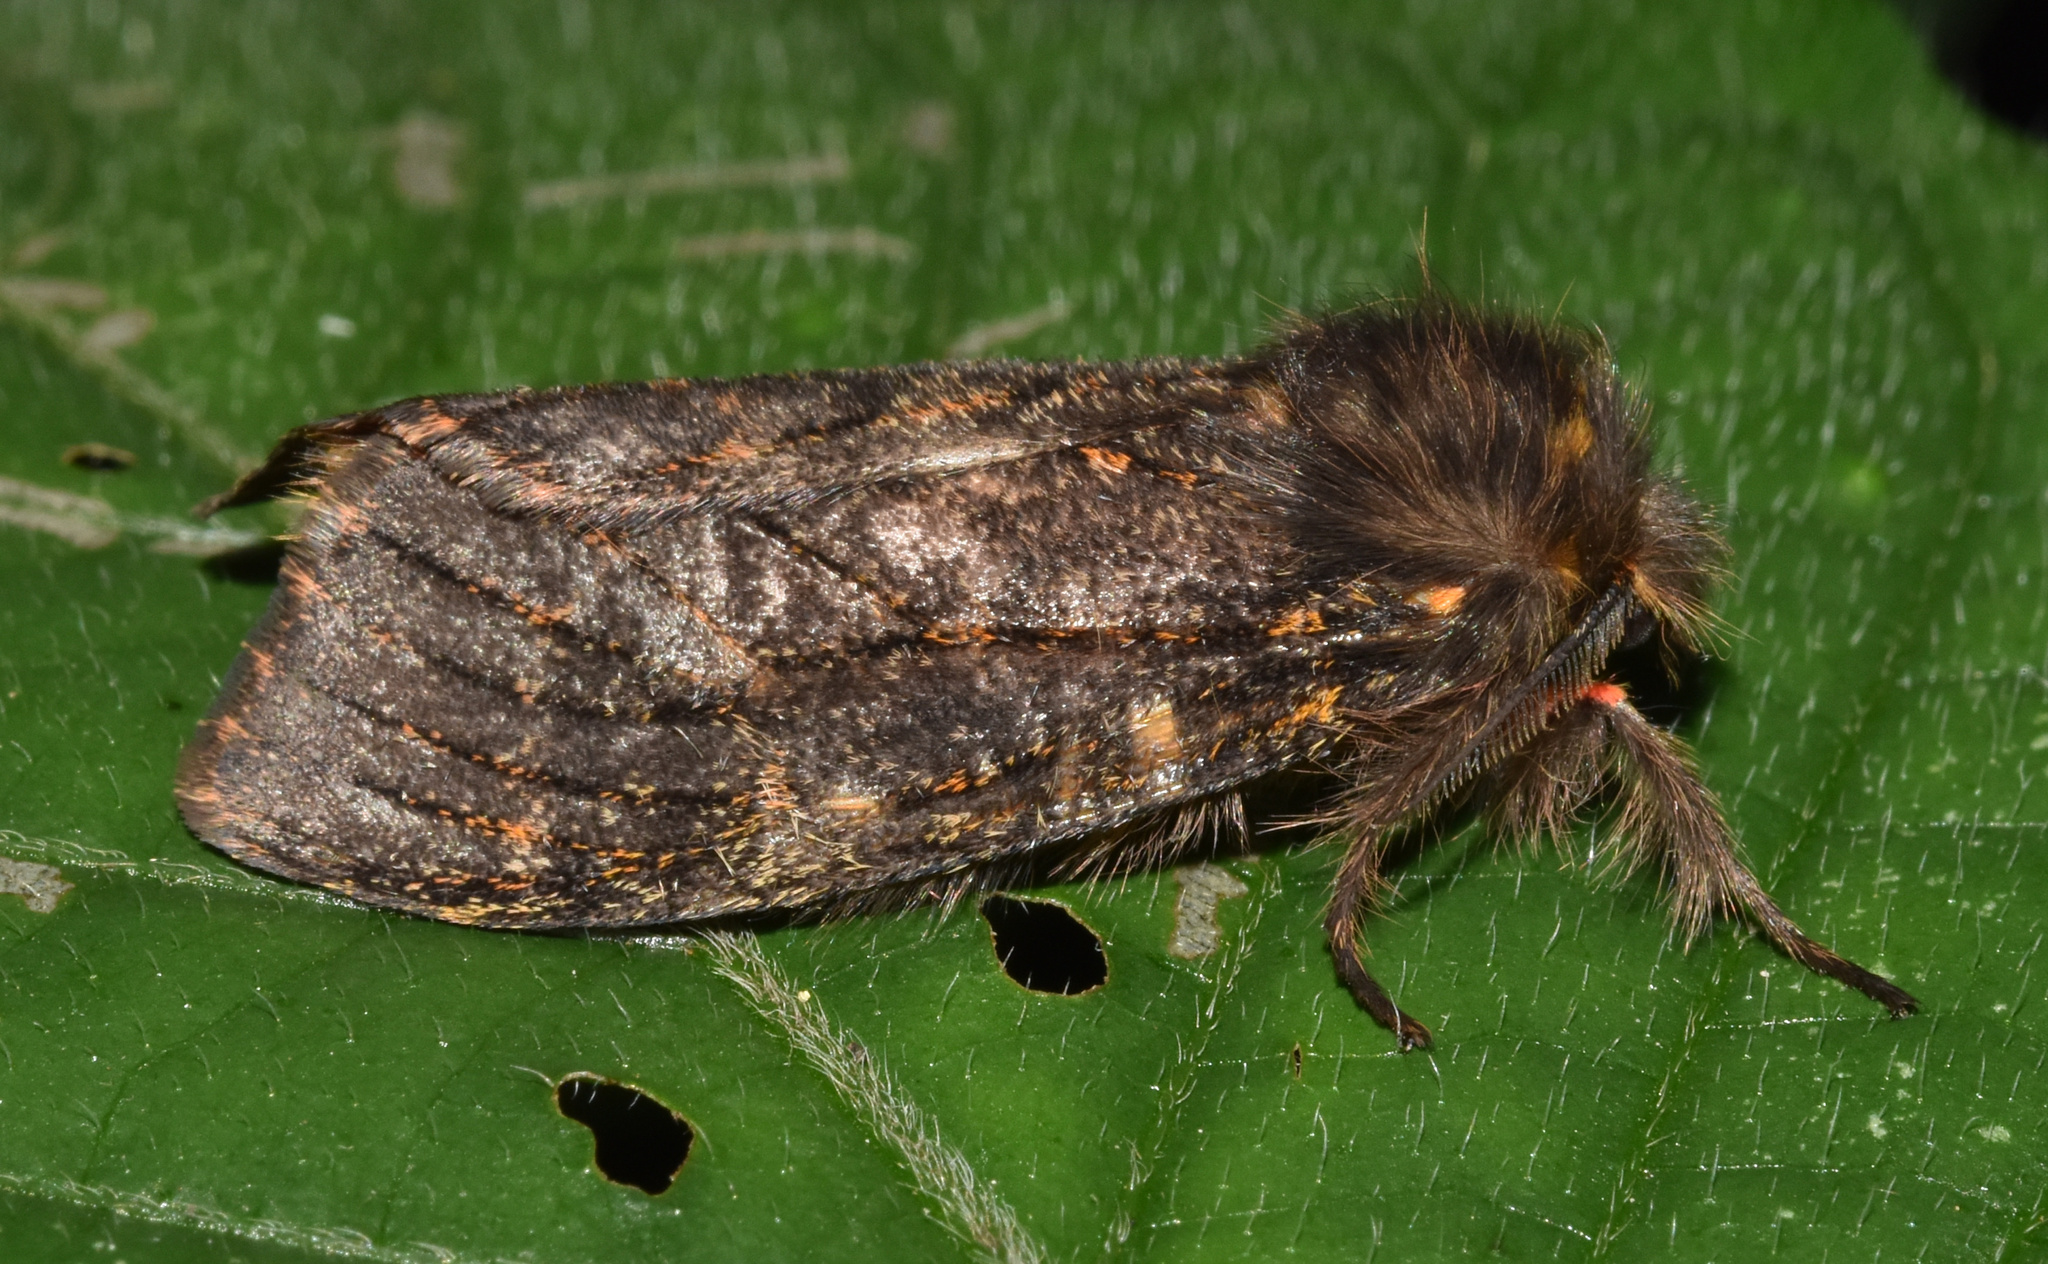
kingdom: Animalia
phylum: Arthropoda
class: Insecta
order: Lepidoptera
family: Erebidae
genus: Polymona
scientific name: Polymona rufifemur
